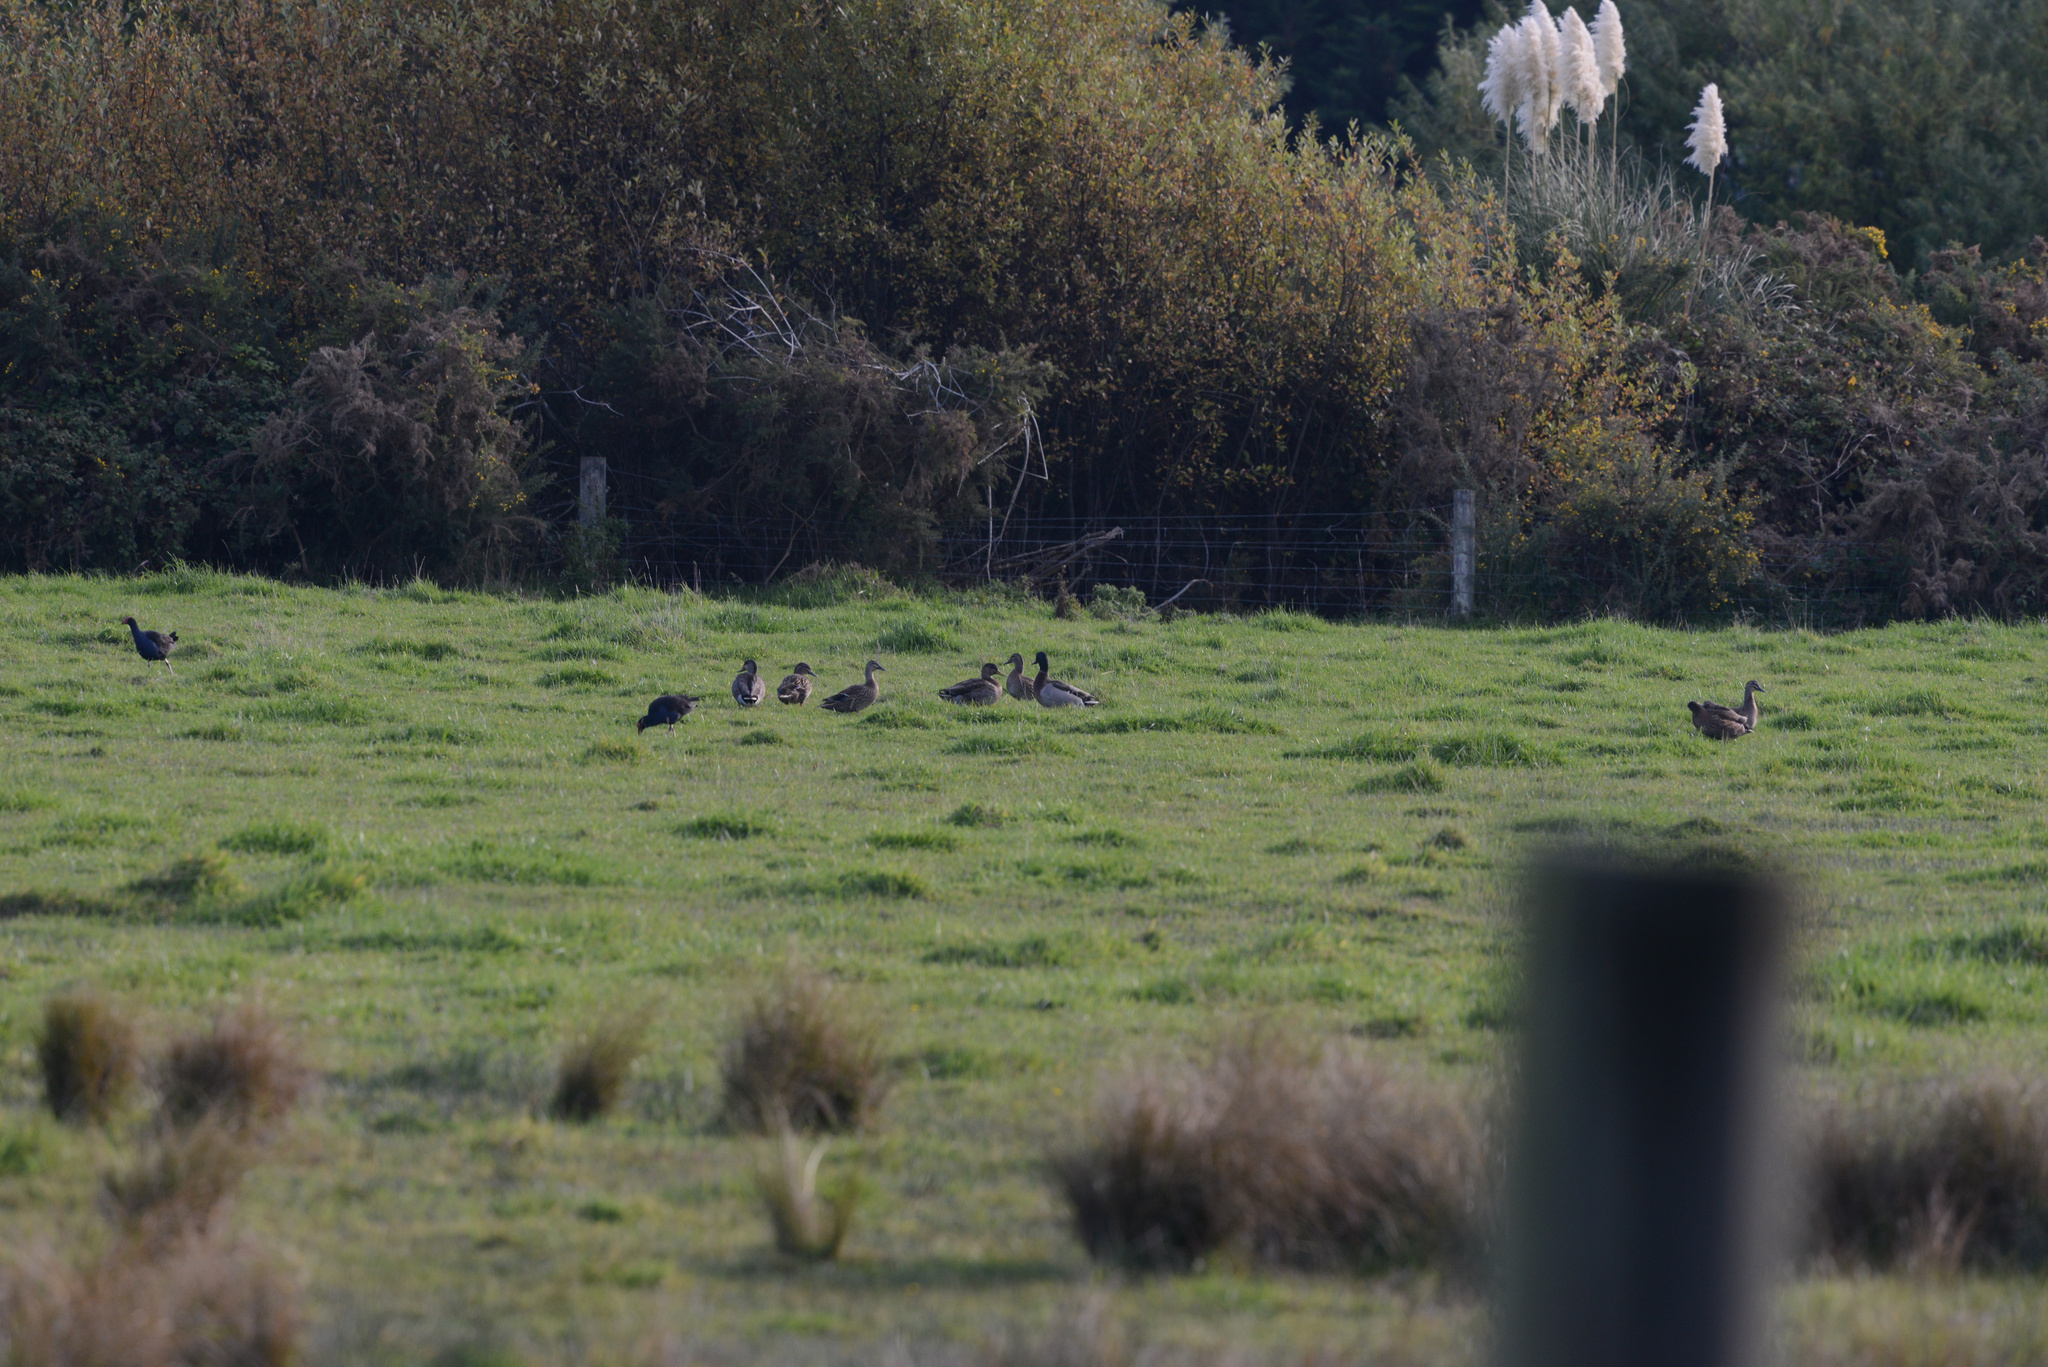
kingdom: Animalia
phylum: Chordata
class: Aves
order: Gruiformes
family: Rallidae
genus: Porphyrio
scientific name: Porphyrio melanotus
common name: Australasian swamphen
